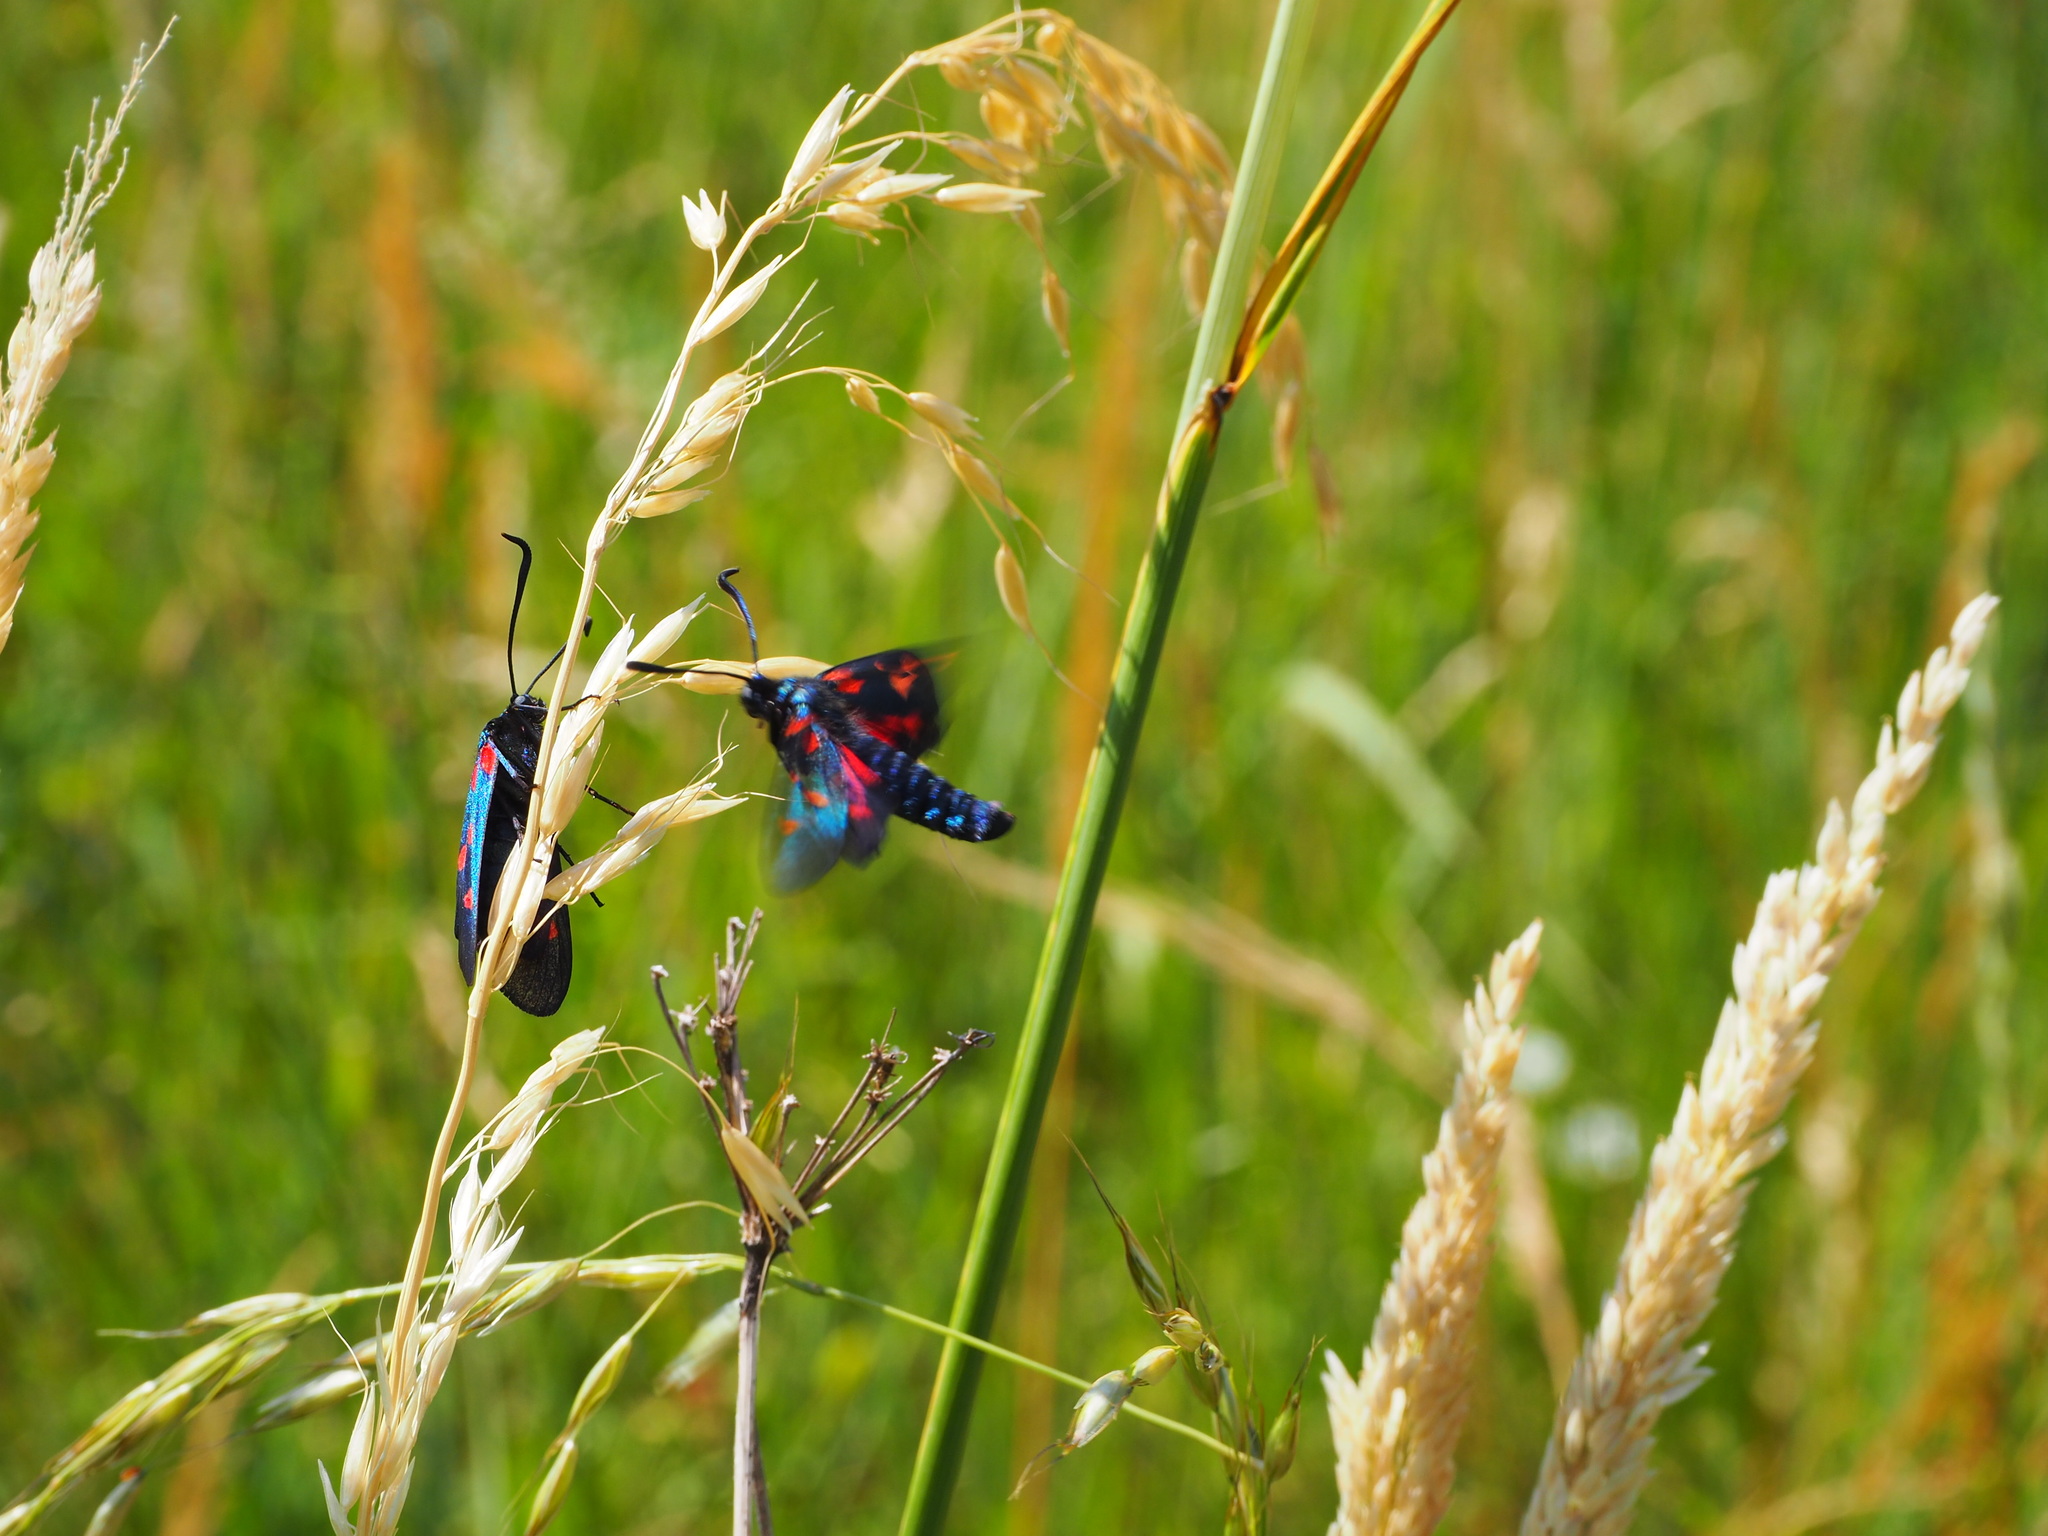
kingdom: Animalia
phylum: Arthropoda
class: Insecta
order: Lepidoptera
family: Zygaenidae
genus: Zygaena
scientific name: Zygaena filipendulae
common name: Six-spot burnet
